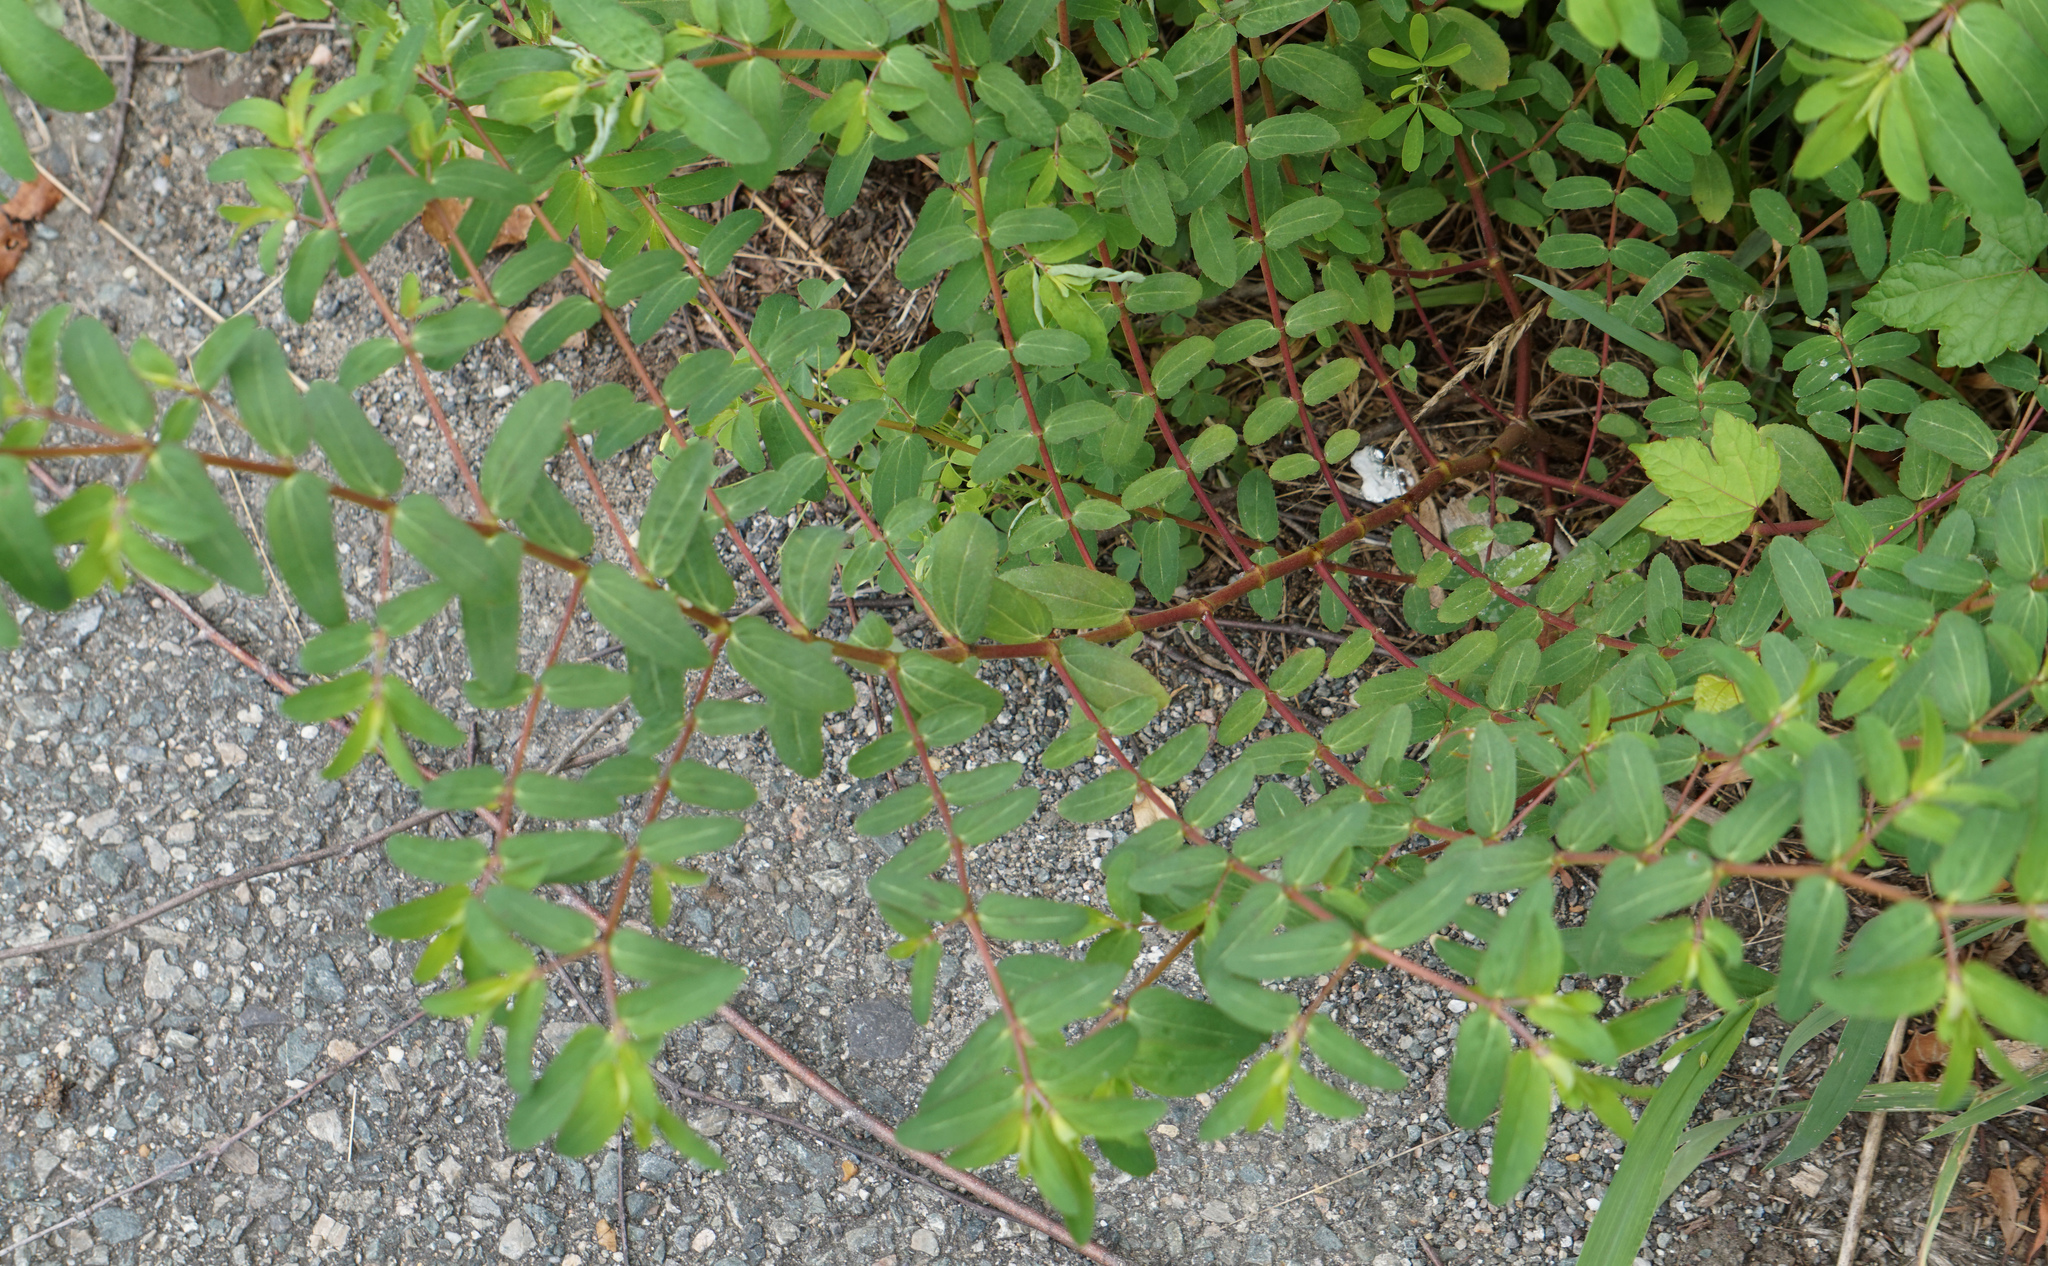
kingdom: Plantae
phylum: Tracheophyta
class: Magnoliopsida
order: Malpighiales
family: Euphorbiaceae
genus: Euphorbia
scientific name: Euphorbia nutans
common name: Eyebane
